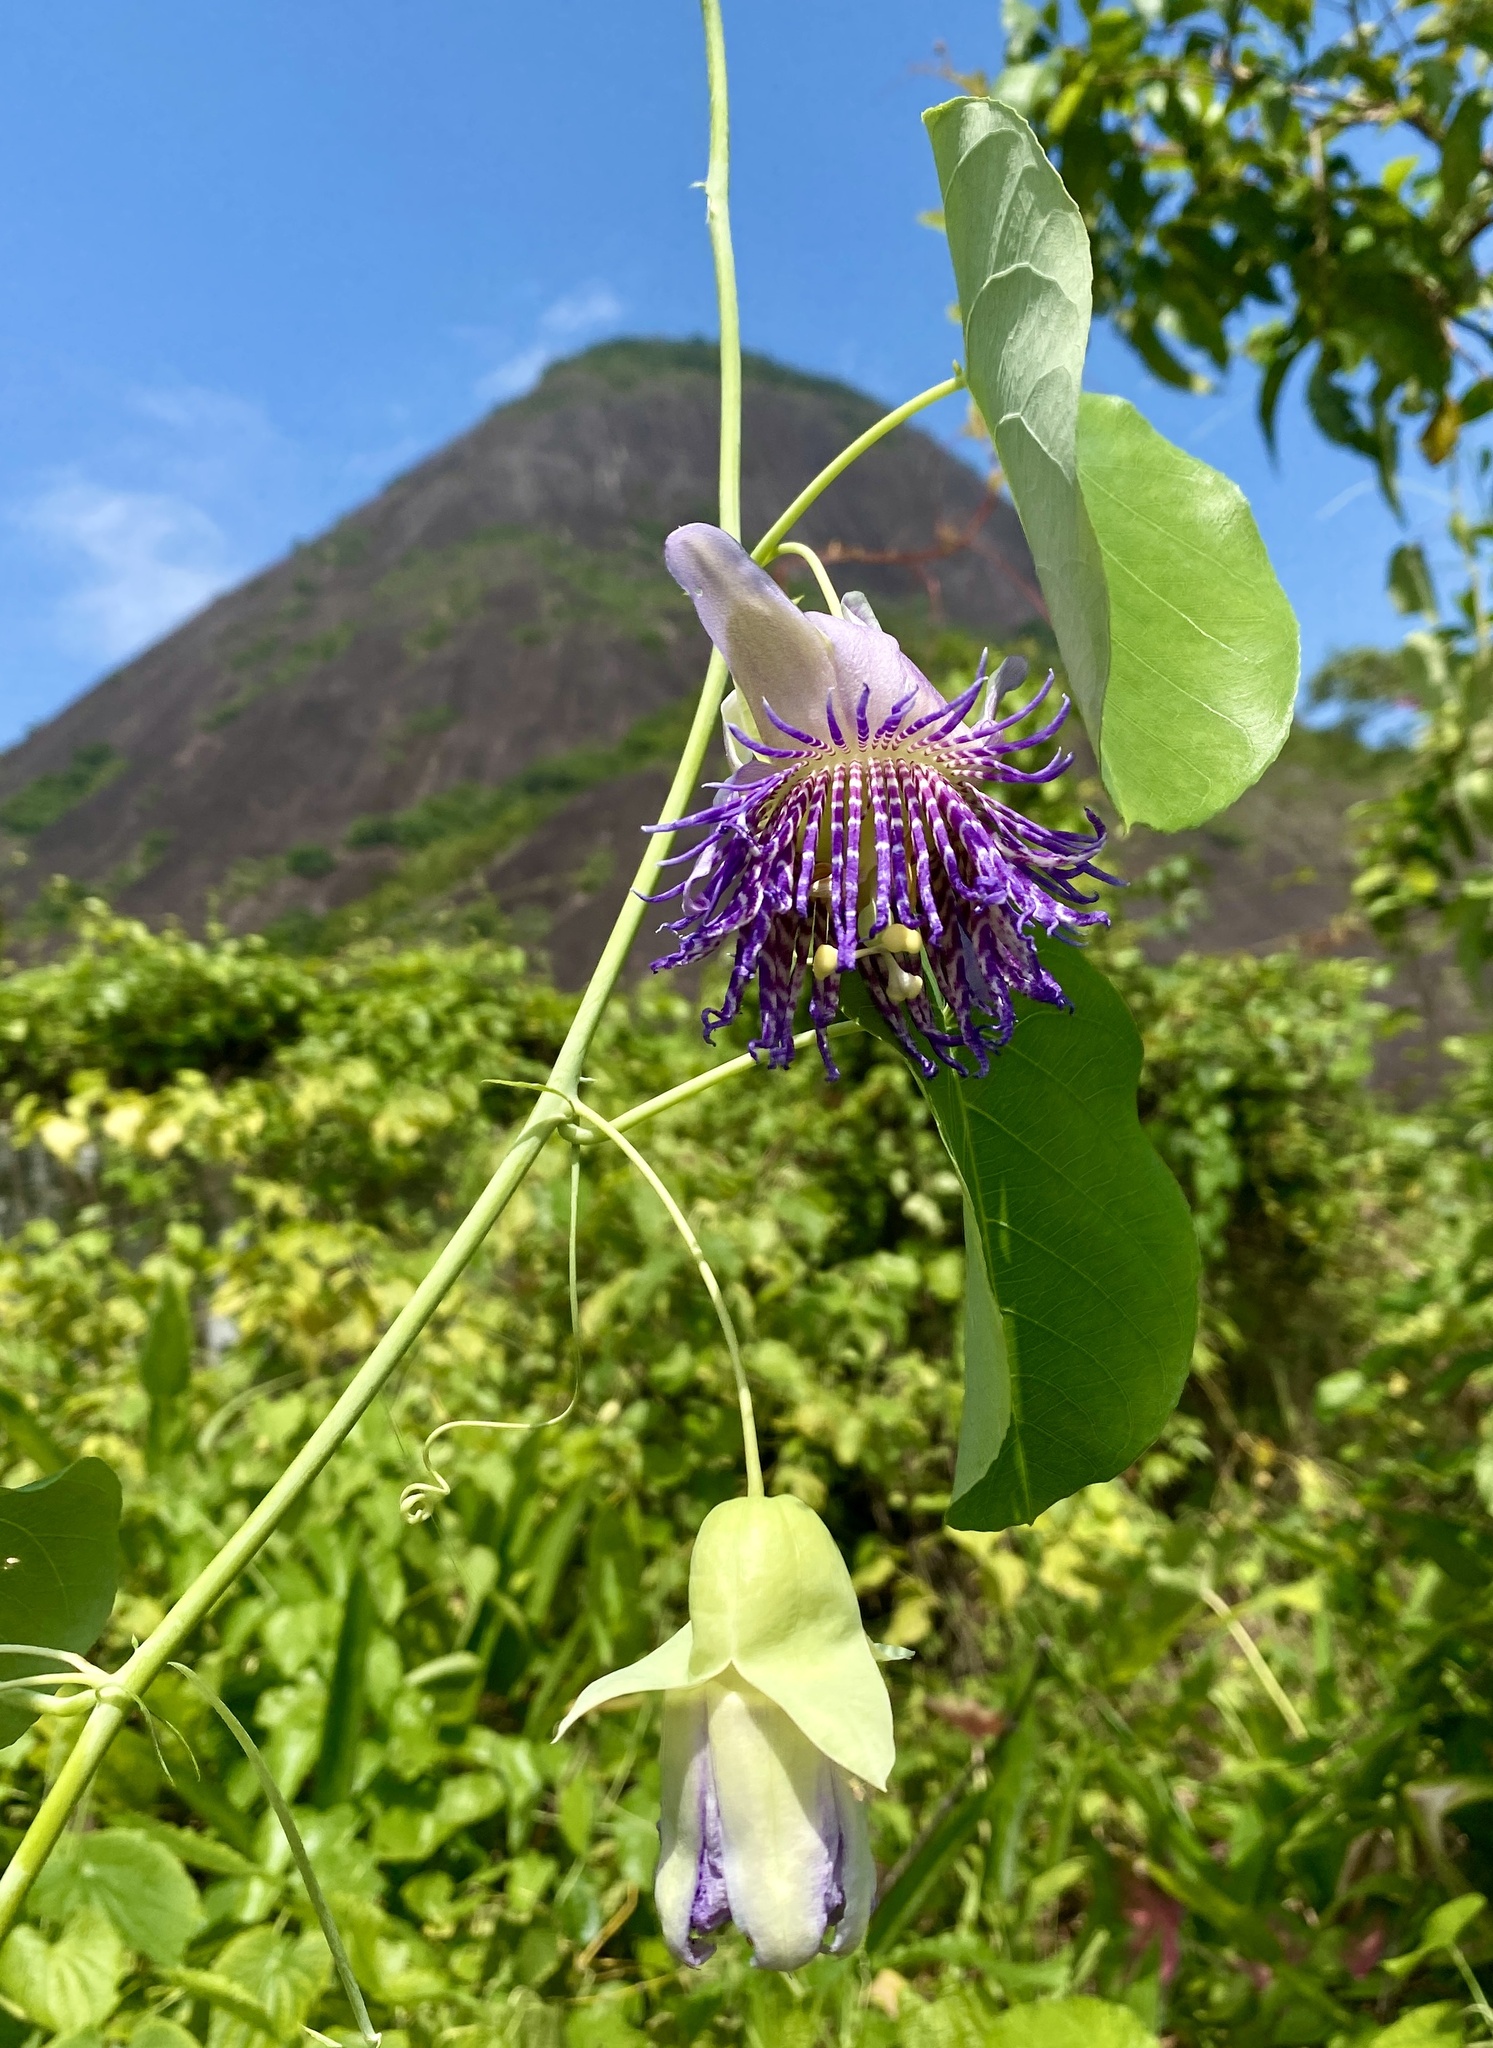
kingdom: Plantae
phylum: Tracheophyta
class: Magnoliopsida
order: Malpighiales
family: Passifloraceae
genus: Passiflora
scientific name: Passiflora seemannii
